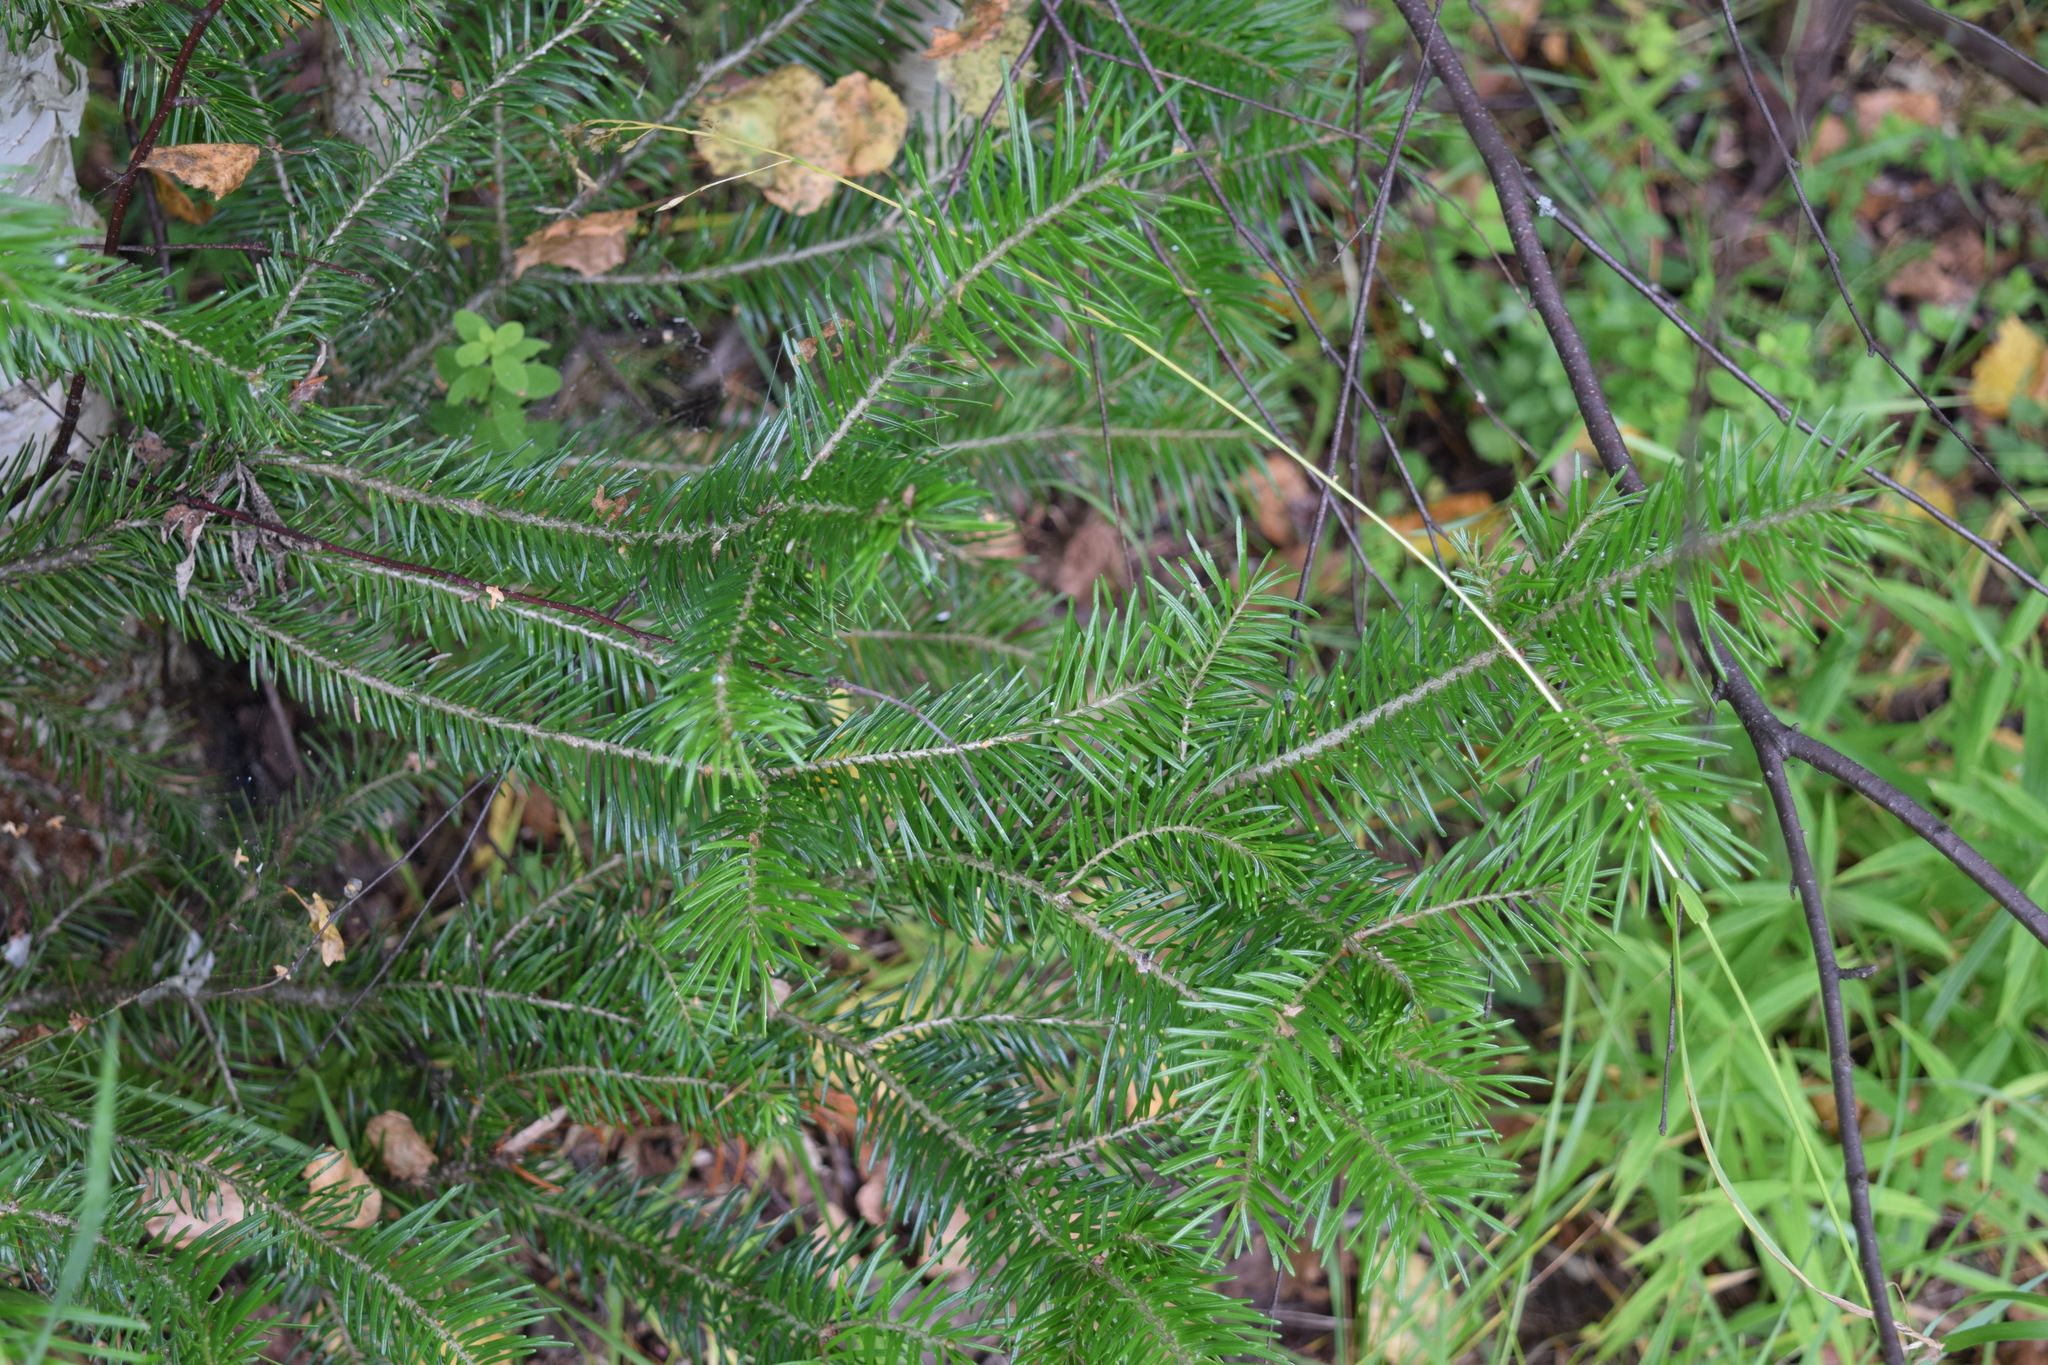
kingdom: Plantae
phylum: Tracheophyta
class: Pinopsida
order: Pinales
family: Pinaceae
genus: Abies
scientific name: Abies sibirica
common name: Siberian fir
